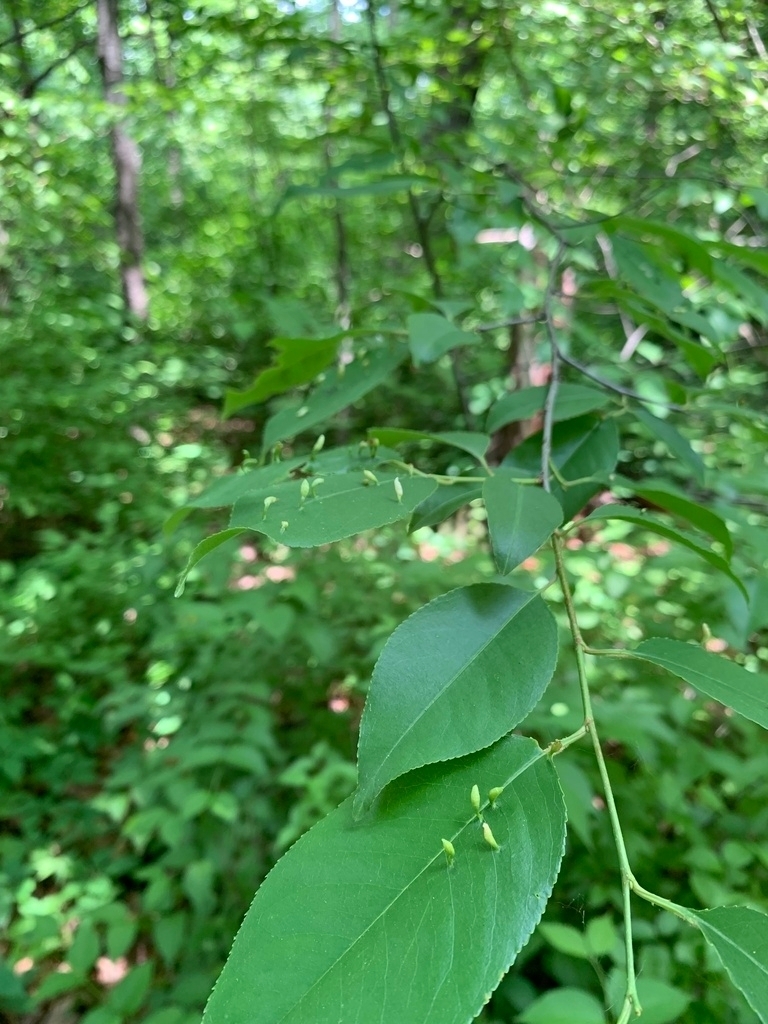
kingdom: Plantae
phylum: Tracheophyta
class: Magnoliopsida
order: Rosales
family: Rosaceae
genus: Prunus
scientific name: Prunus serotina
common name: Black cherry
